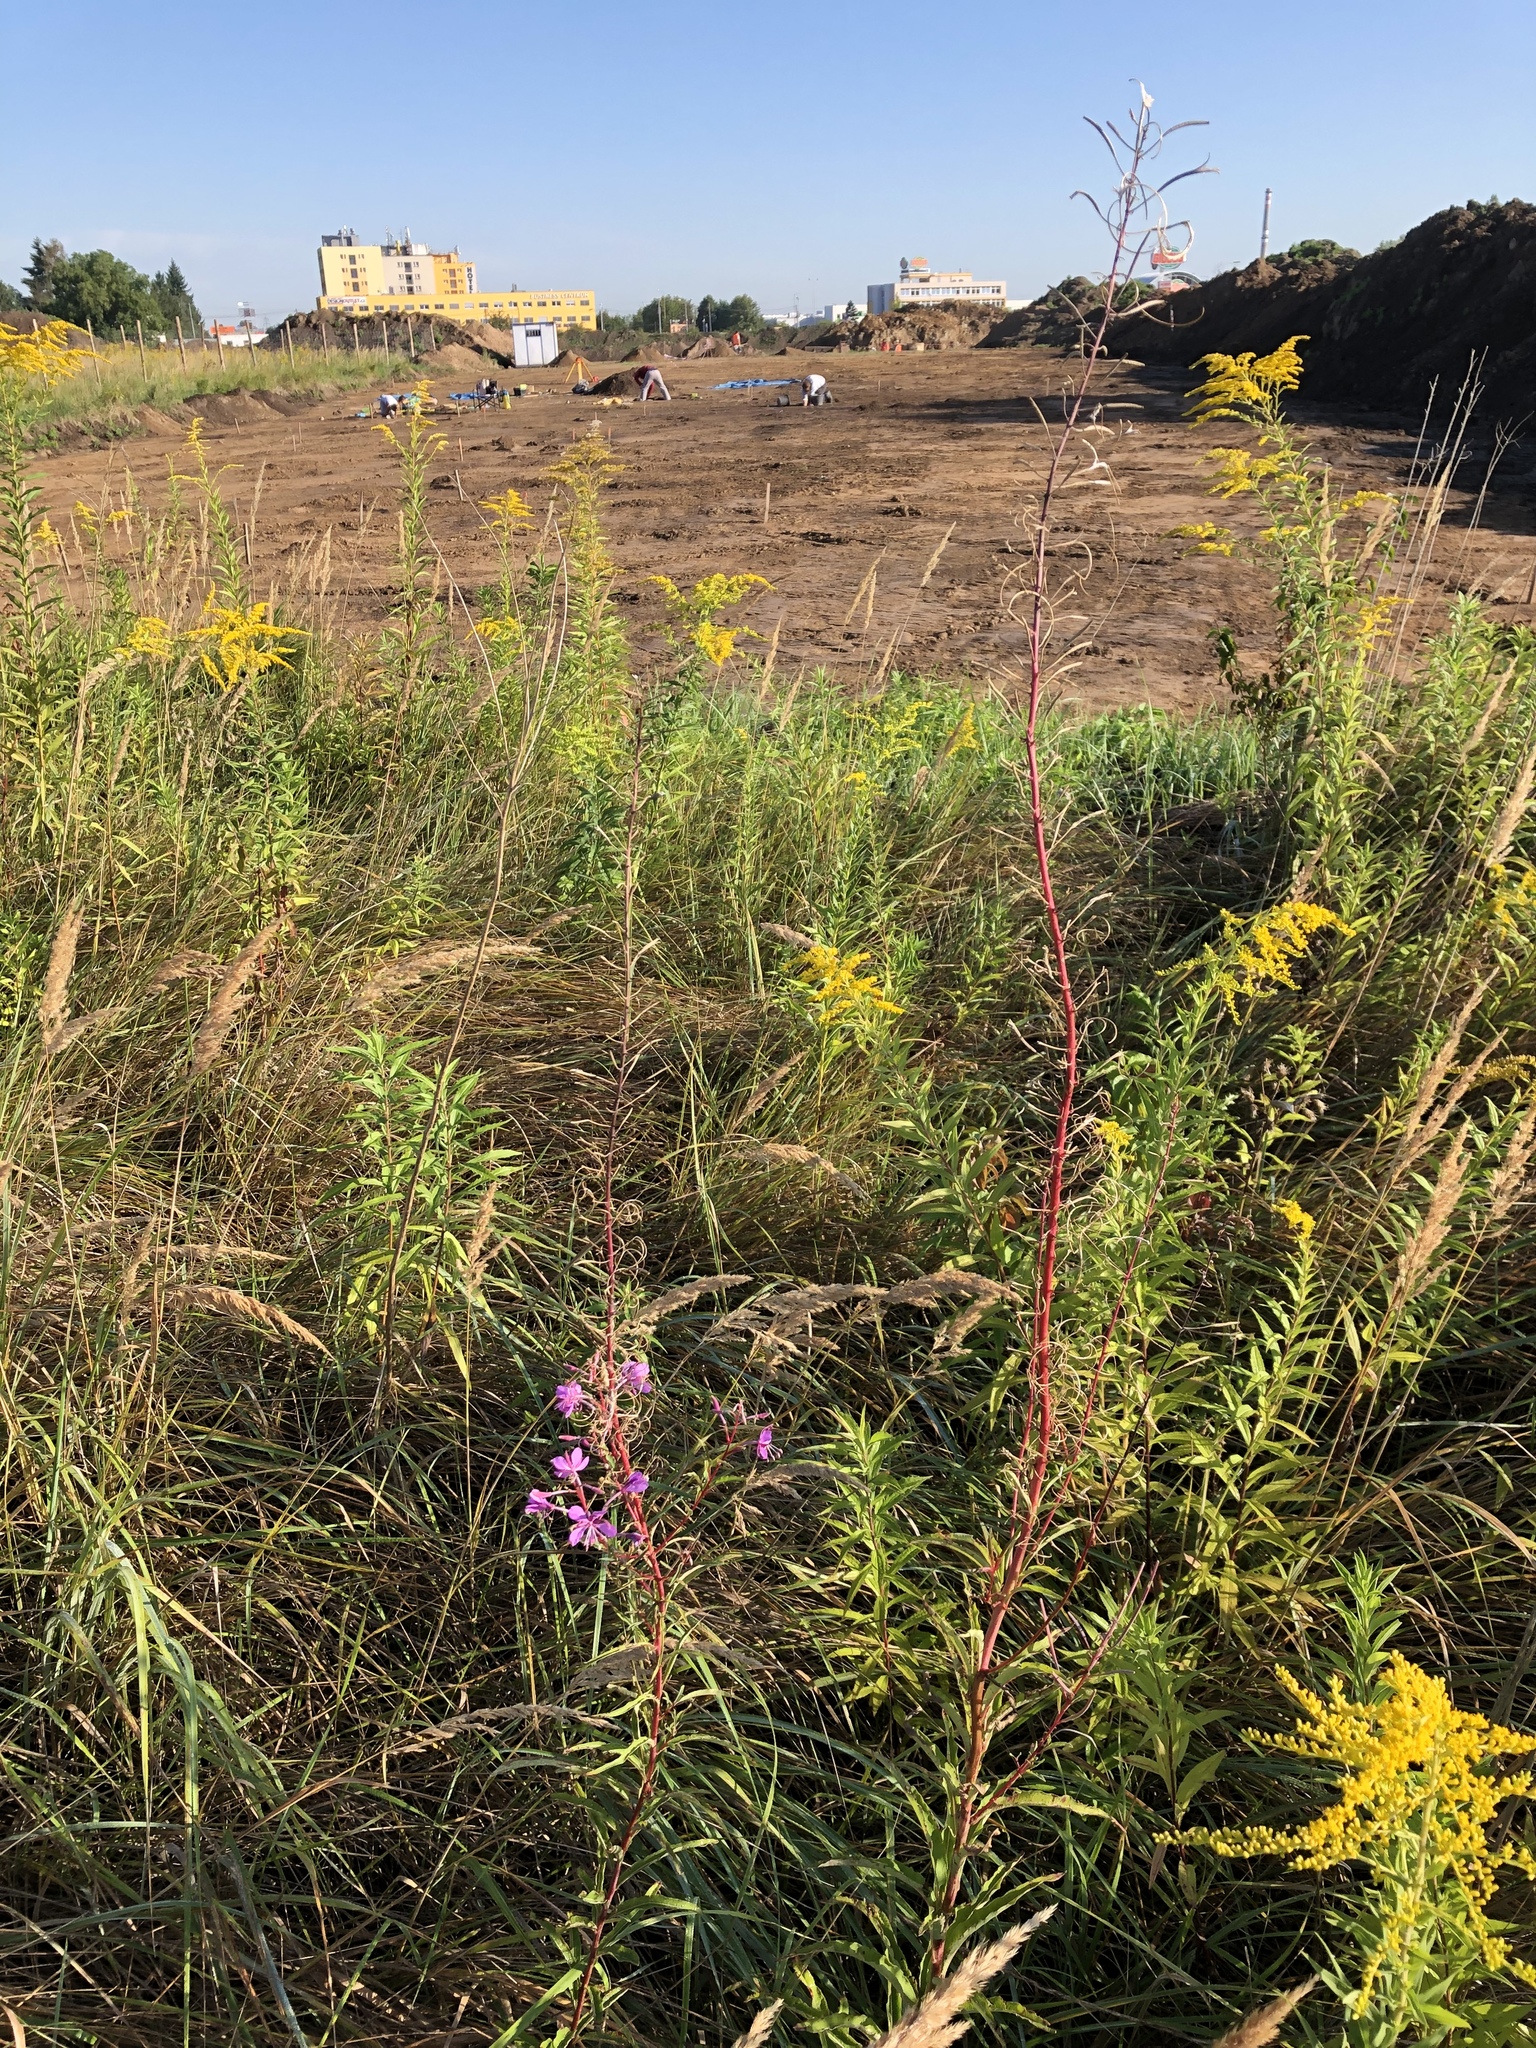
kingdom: Plantae
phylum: Tracheophyta
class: Magnoliopsida
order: Myrtales
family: Onagraceae
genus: Chamaenerion
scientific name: Chamaenerion angustifolium
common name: Fireweed
